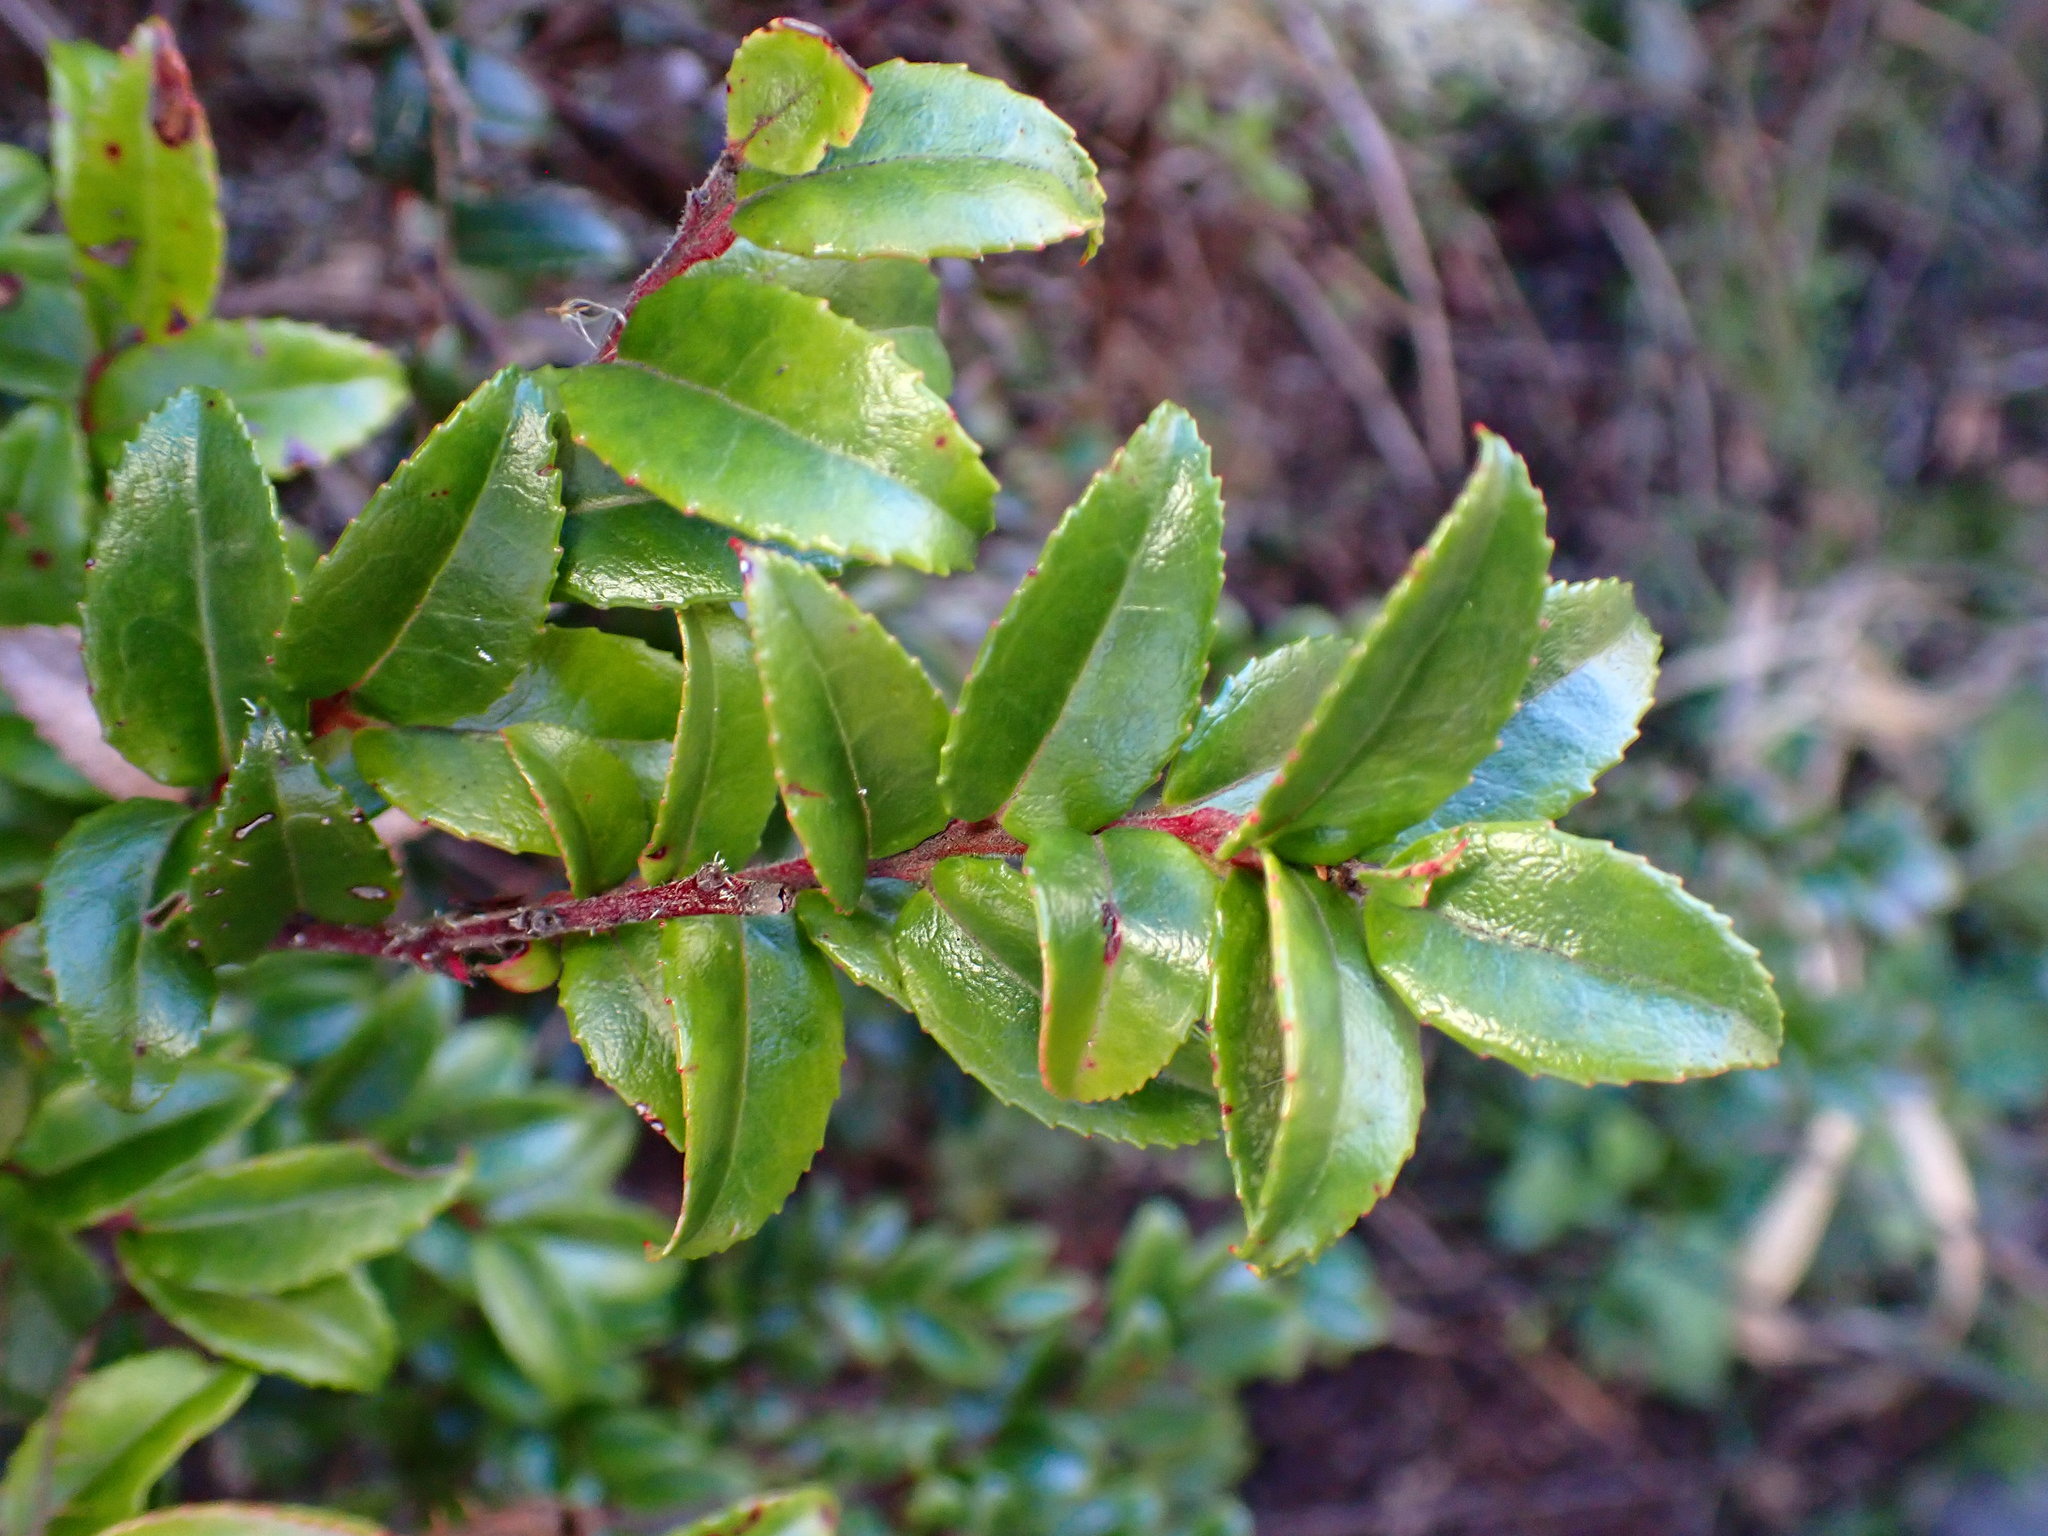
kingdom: Plantae
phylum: Tracheophyta
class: Magnoliopsida
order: Ericales
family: Ericaceae
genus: Vaccinium
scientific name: Vaccinium ovatum
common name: California-huckleberry
